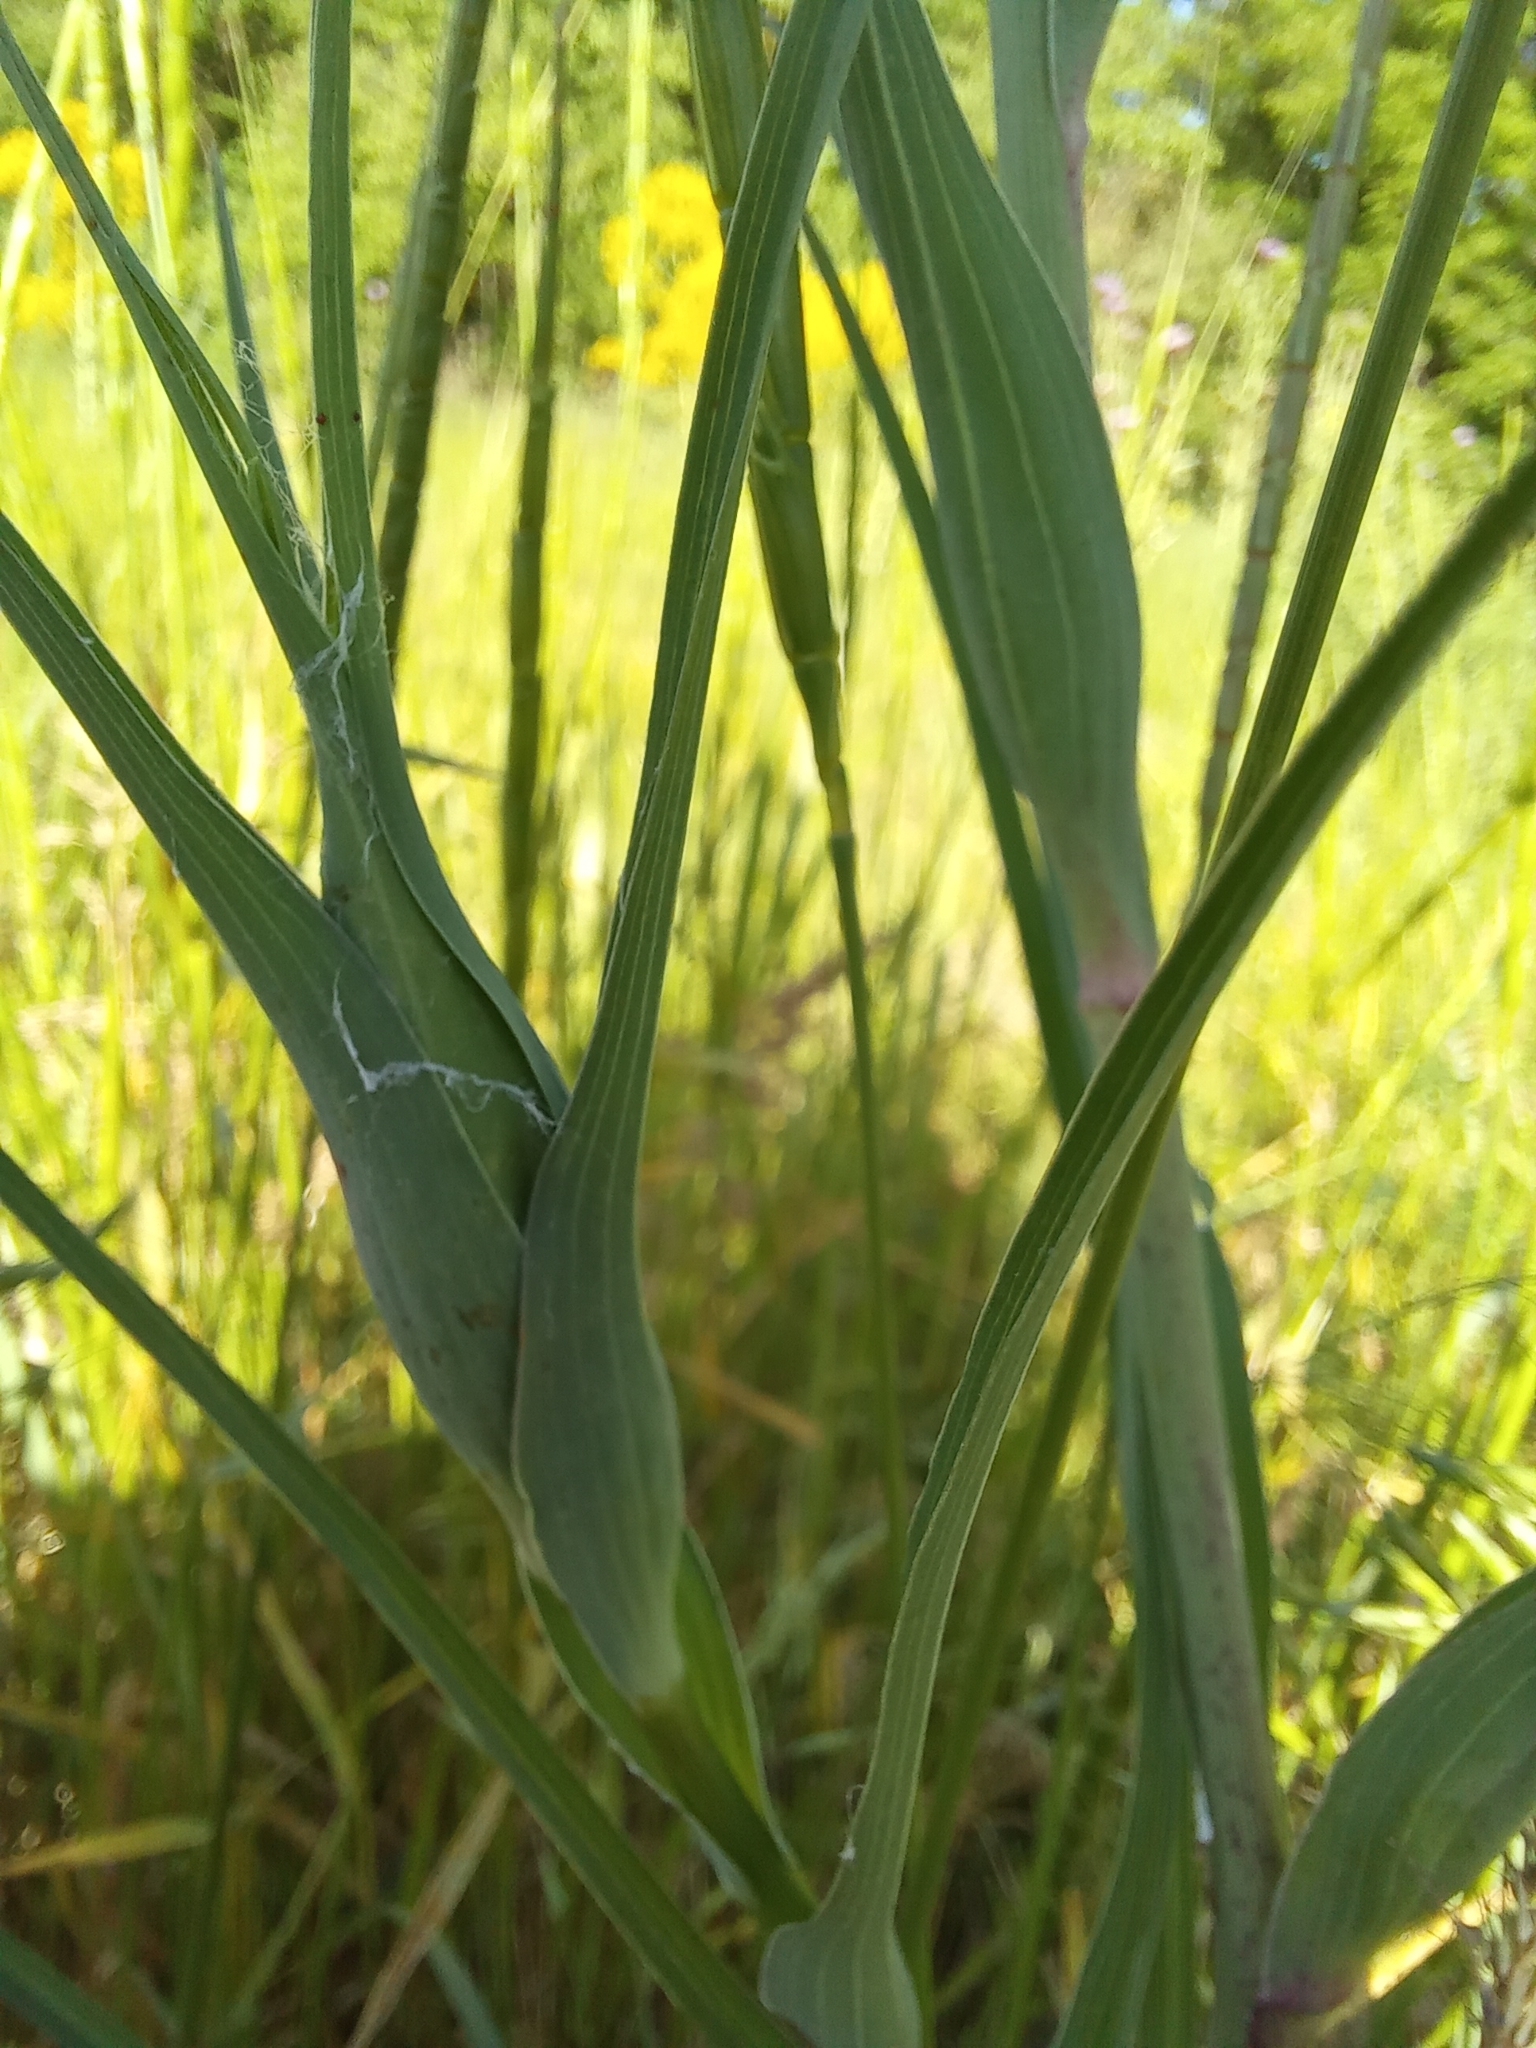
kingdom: Plantae
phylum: Tracheophyta
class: Magnoliopsida
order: Asterales
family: Asteraceae
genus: Tragopogon
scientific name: Tragopogon dubius
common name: Yellow salsify
